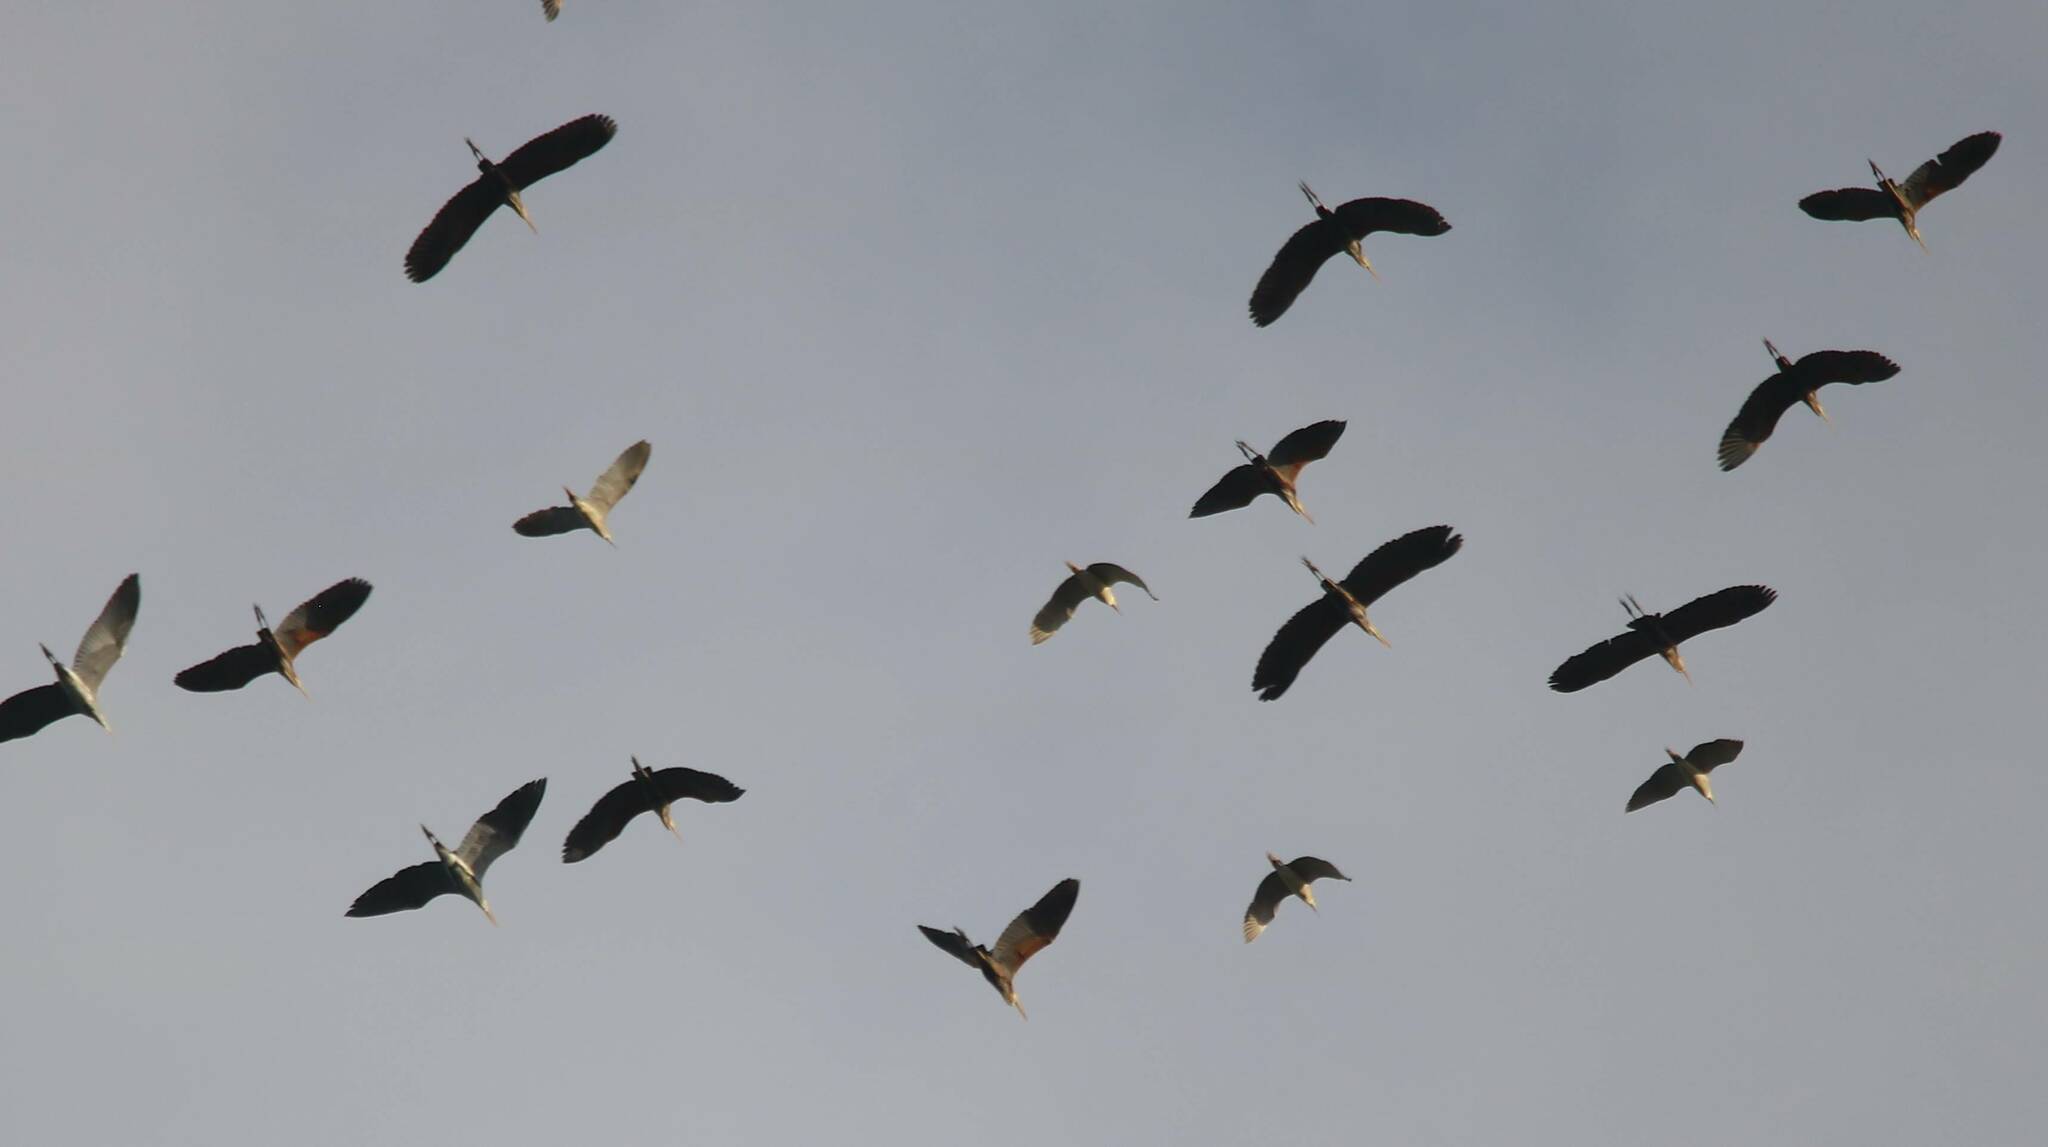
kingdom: Animalia
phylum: Chordata
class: Aves
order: Pelecaniformes
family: Ardeidae
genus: Ardea
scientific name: Ardea purpurea
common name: Purple heron
